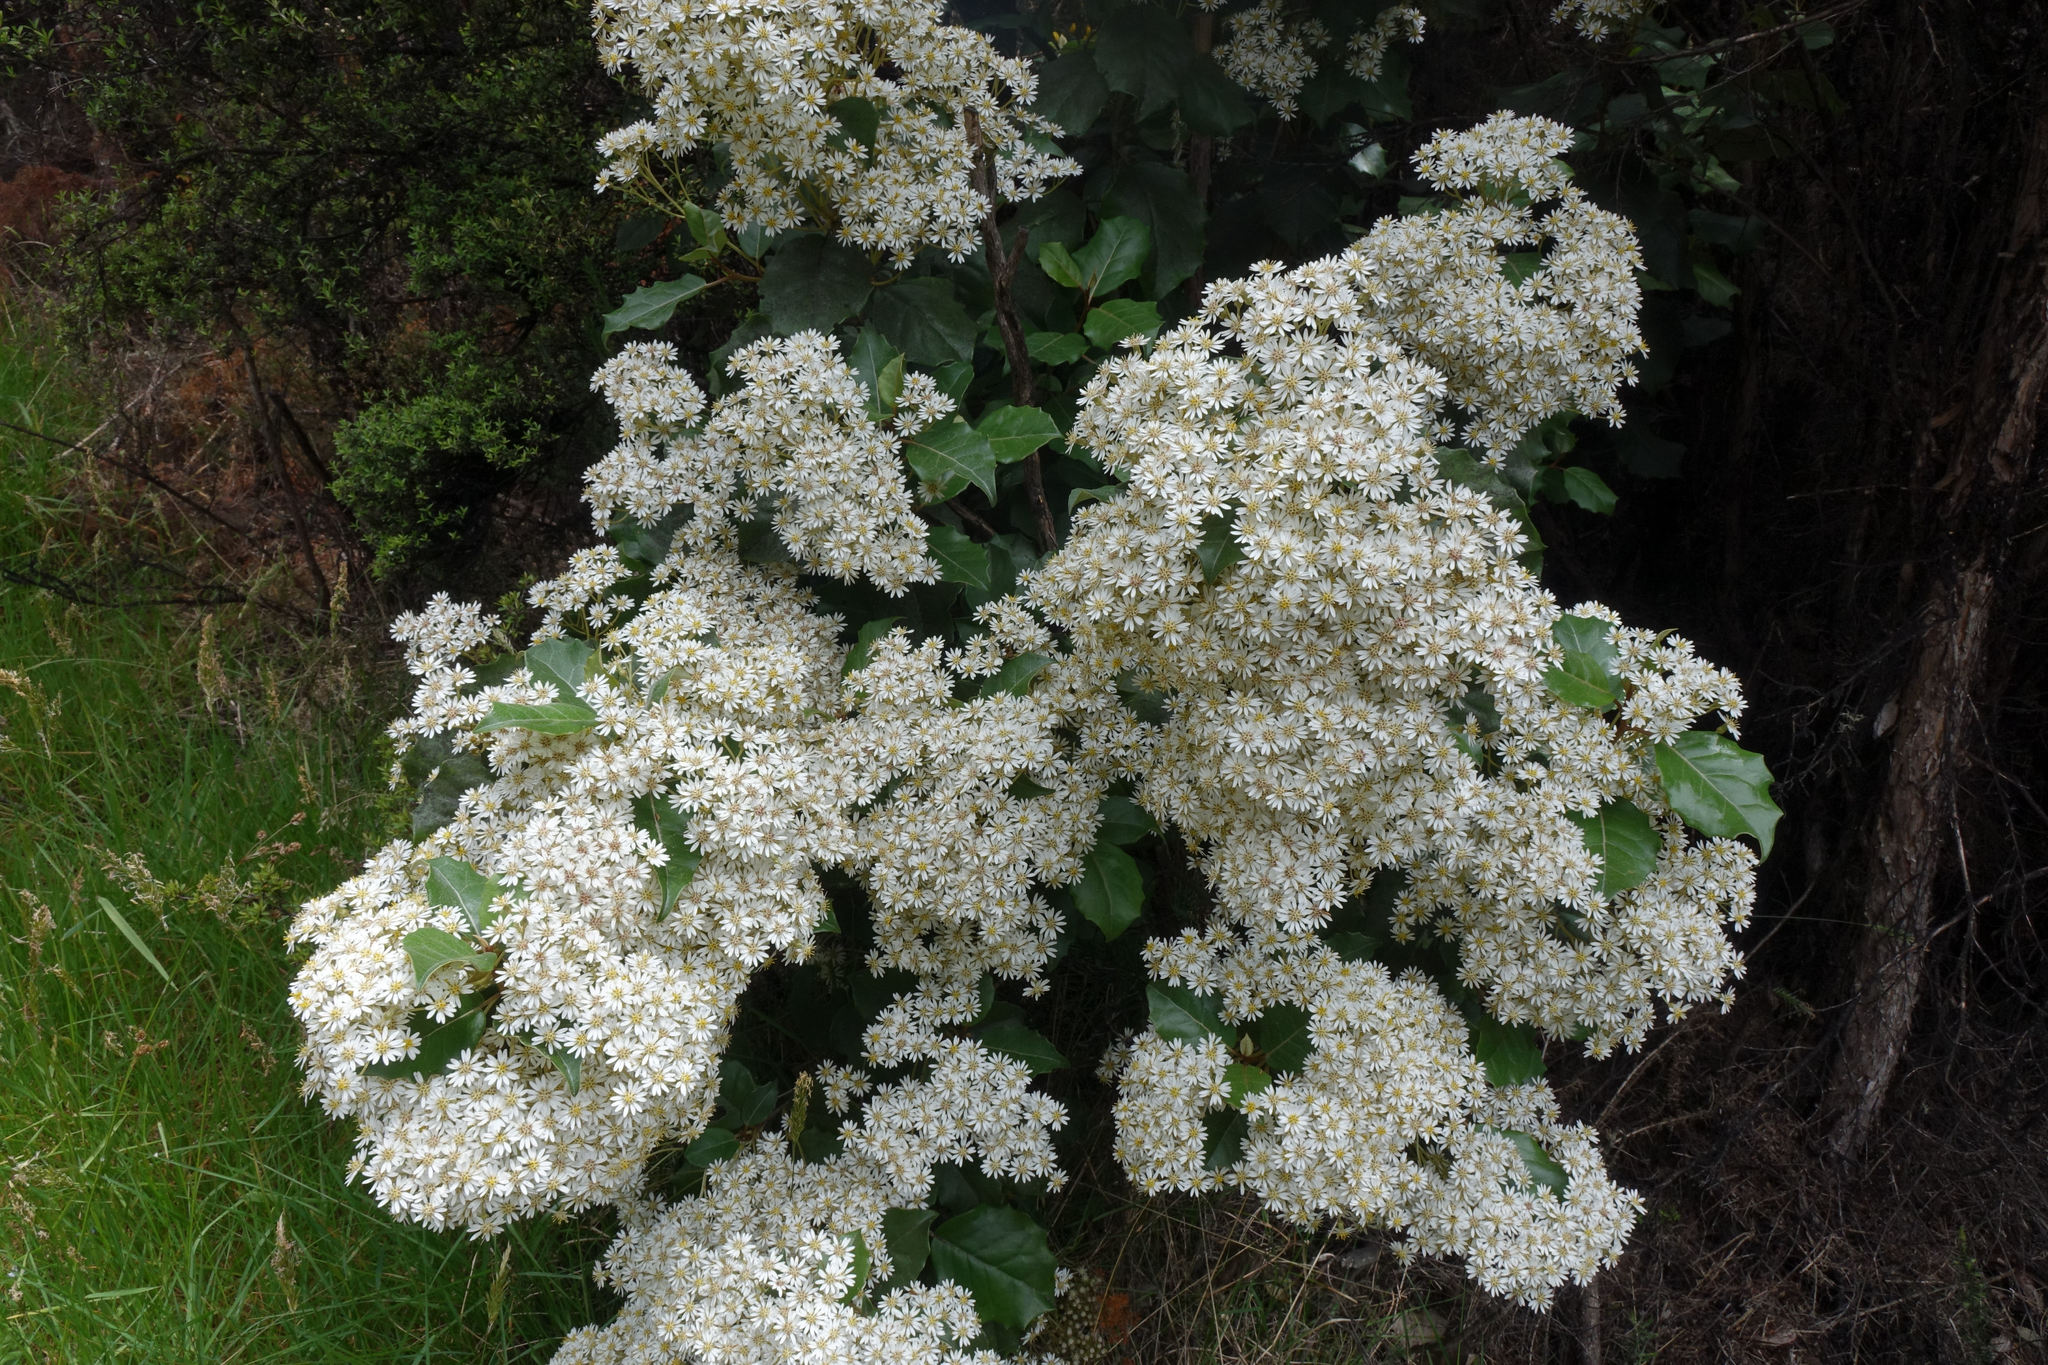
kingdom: Plantae
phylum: Tracheophyta
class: Magnoliopsida
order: Asterales
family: Asteraceae
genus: Olearia
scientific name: Olearia arborescens
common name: Glossy tree daisy
